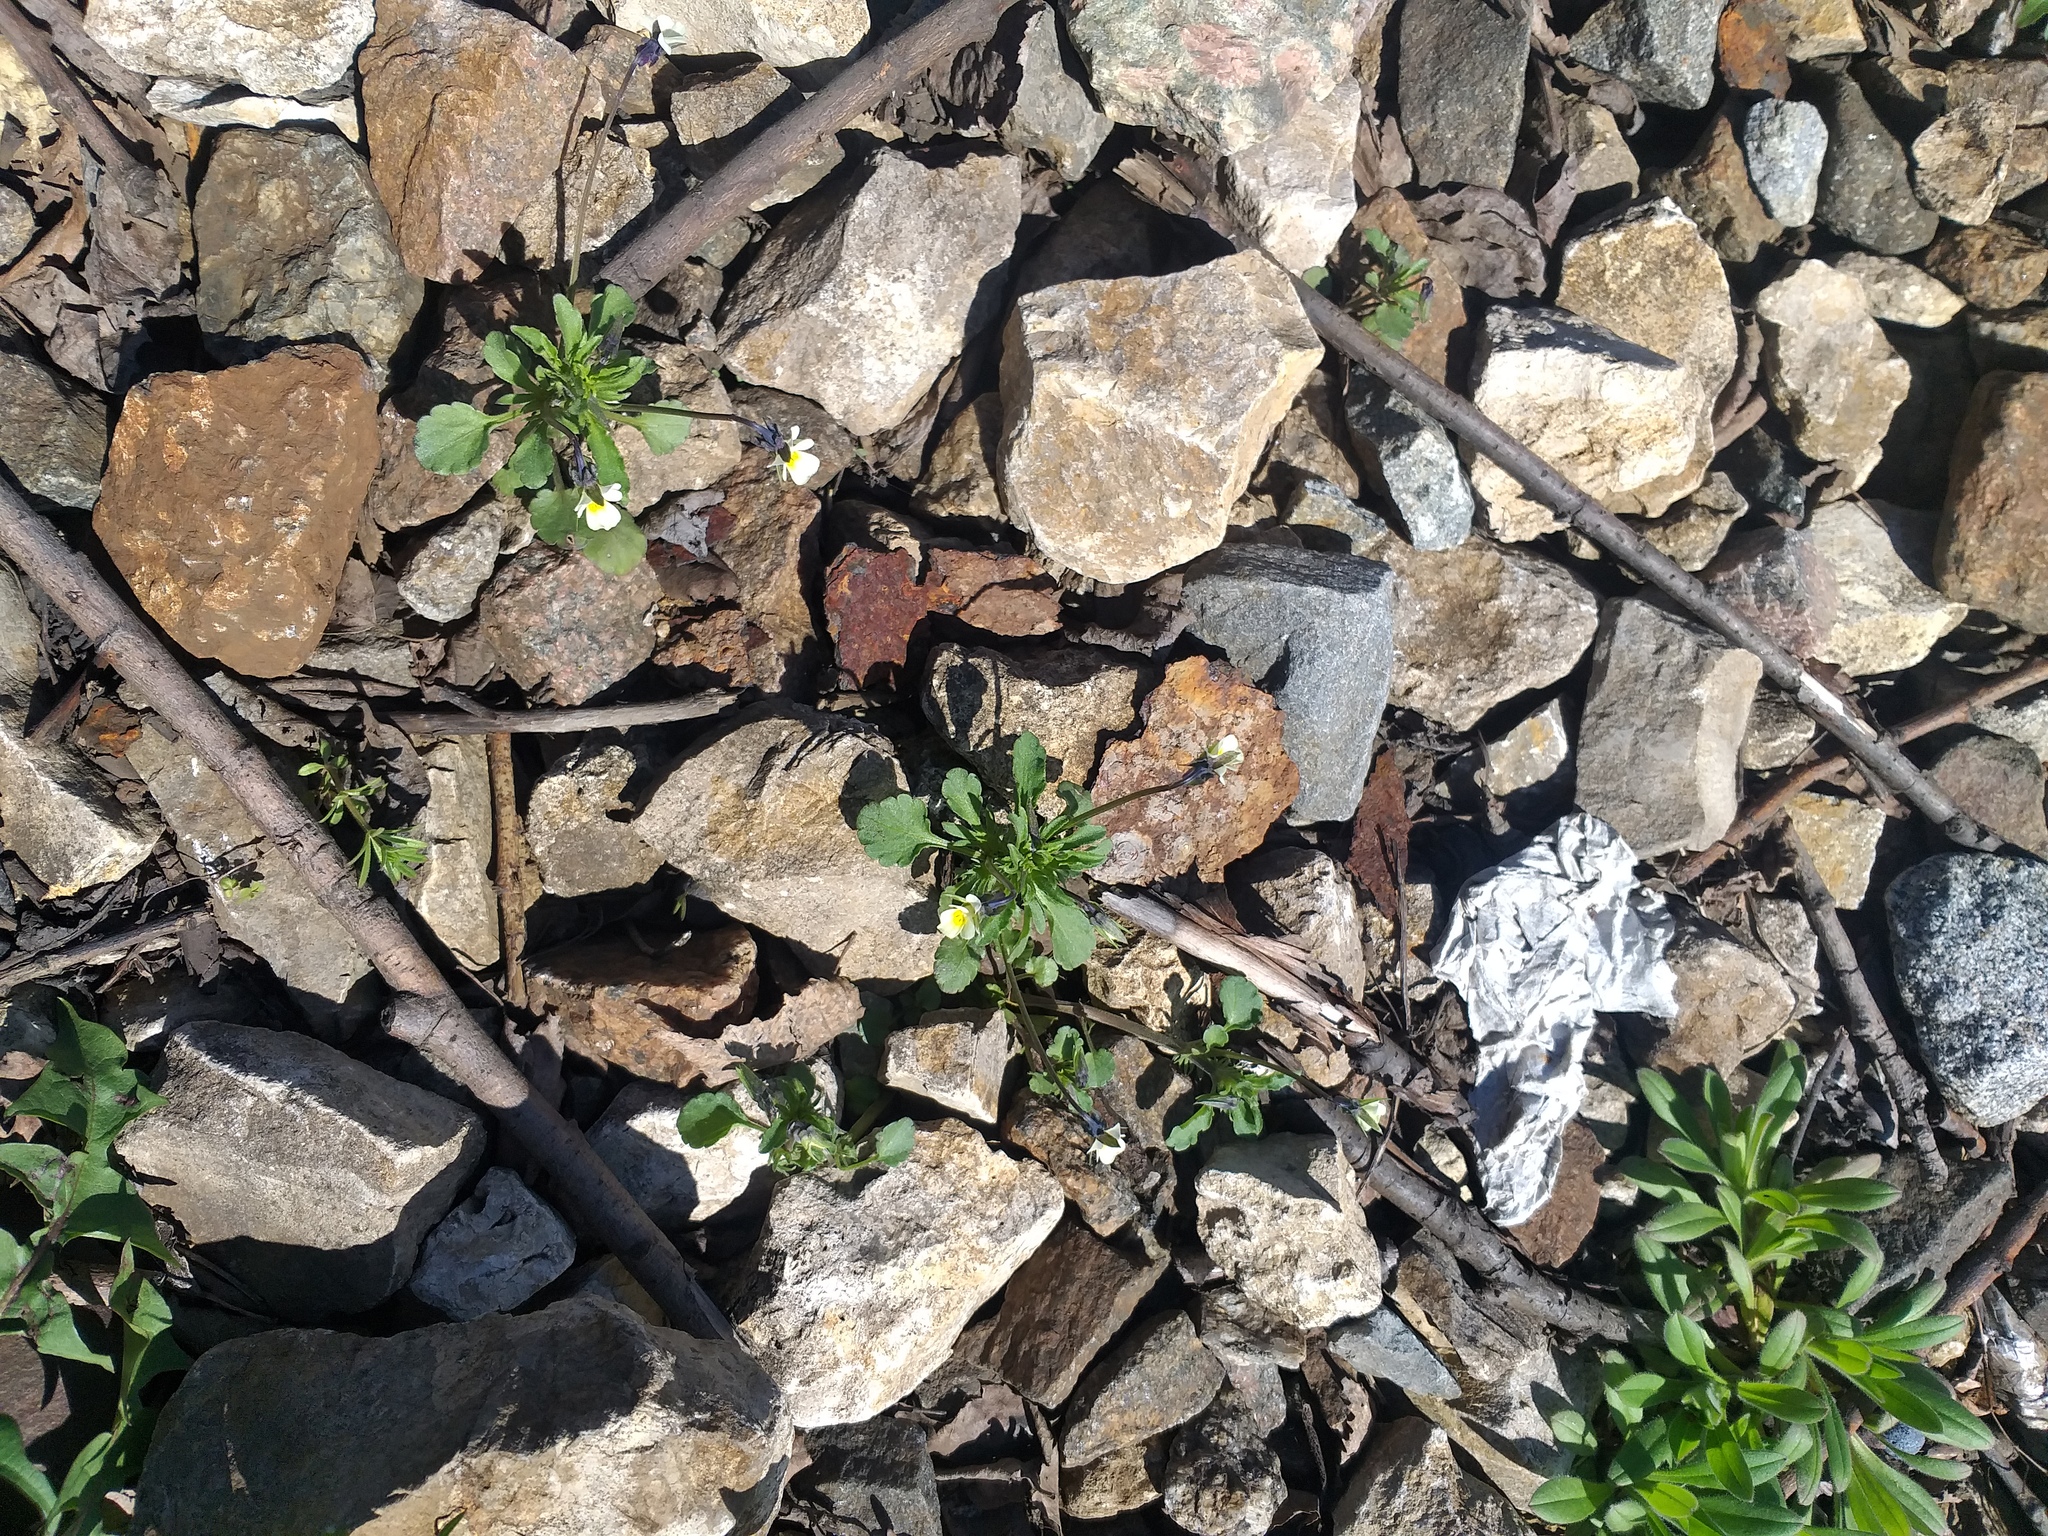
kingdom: Plantae
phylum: Tracheophyta
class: Magnoliopsida
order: Malpighiales
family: Violaceae
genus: Viola
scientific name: Viola arvensis
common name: Field pansy
